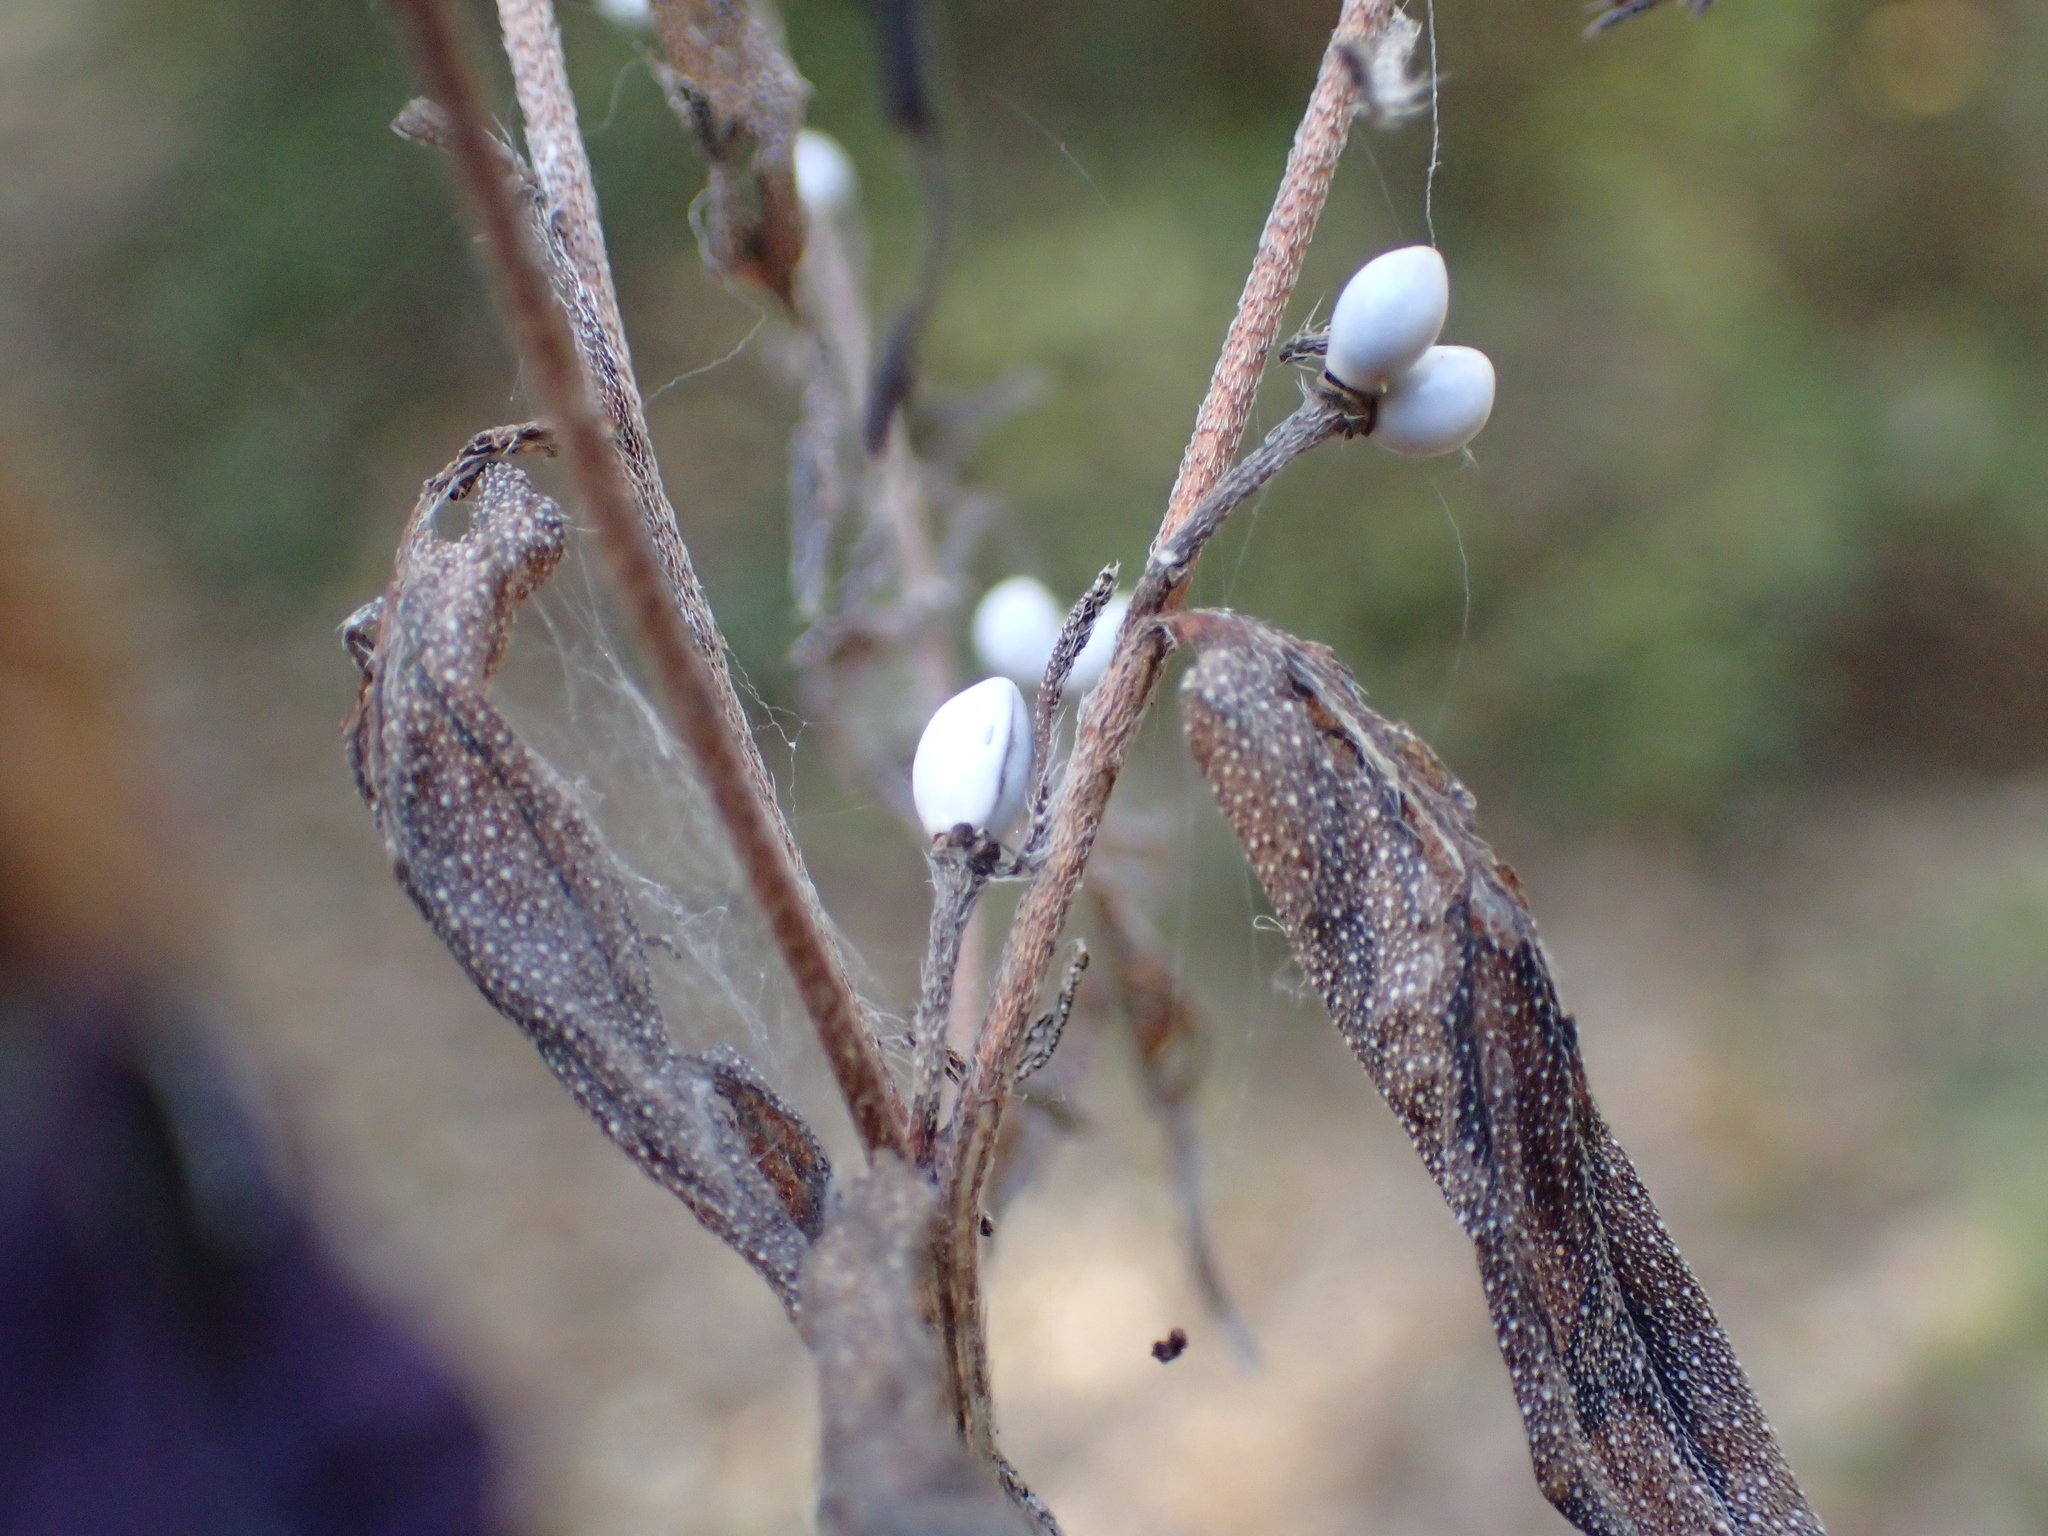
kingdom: Plantae
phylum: Tracheophyta
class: Magnoliopsida
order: Boraginales
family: Boraginaceae
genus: Lithospermum
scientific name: Lithospermum officinale
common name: Common gromwell
